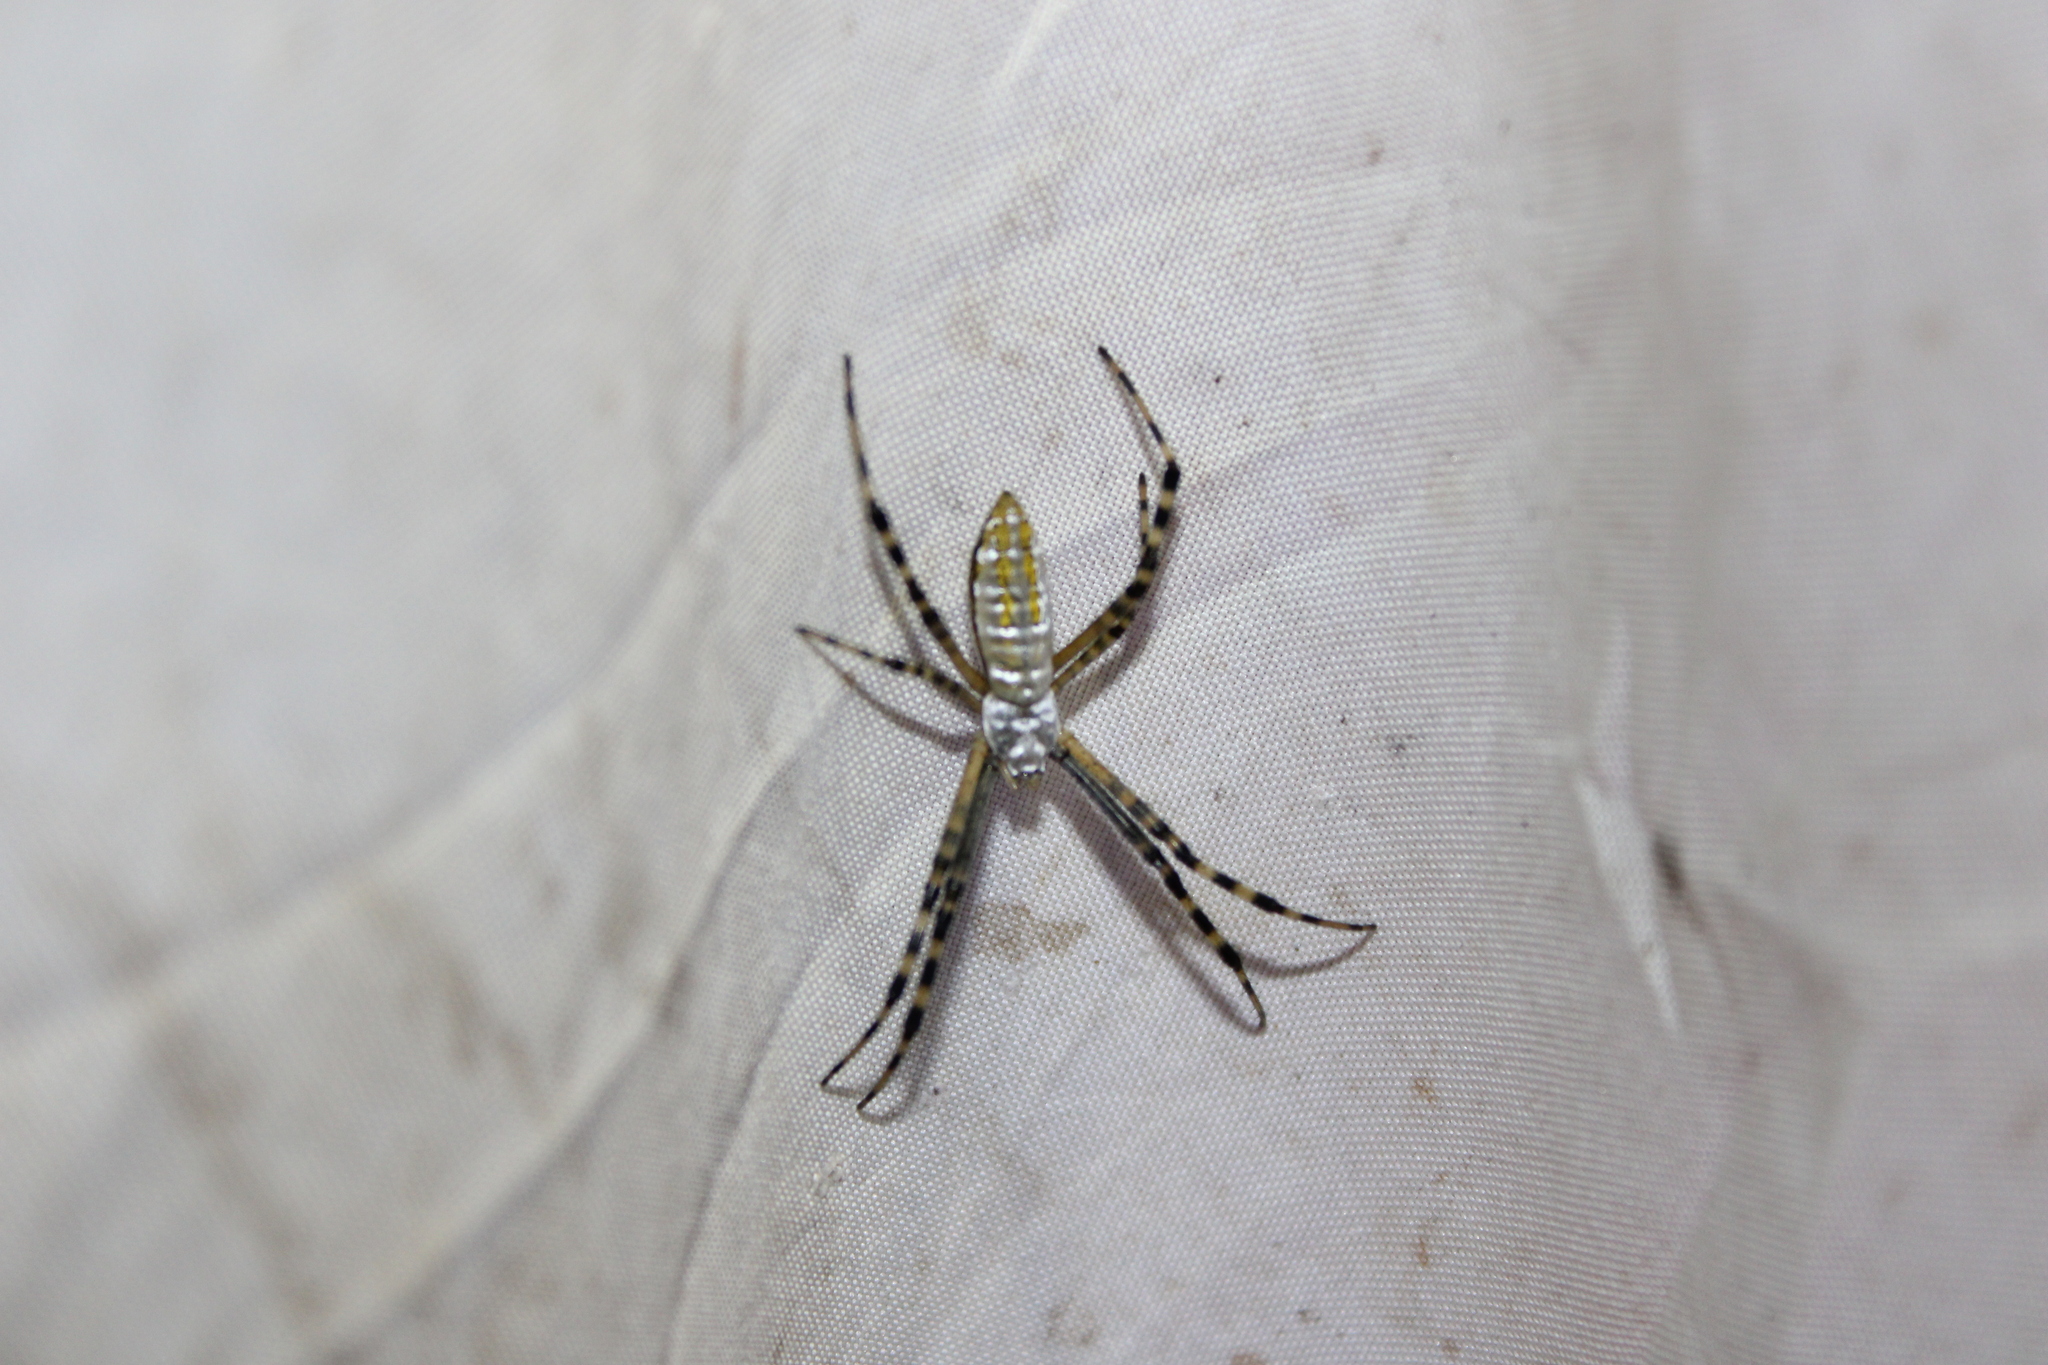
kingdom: Animalia
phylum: Arthropoda
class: Arachnida
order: Araneae
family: Araneidae
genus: Argiope
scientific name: Argiope trifasciata
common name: Banded garden spider
